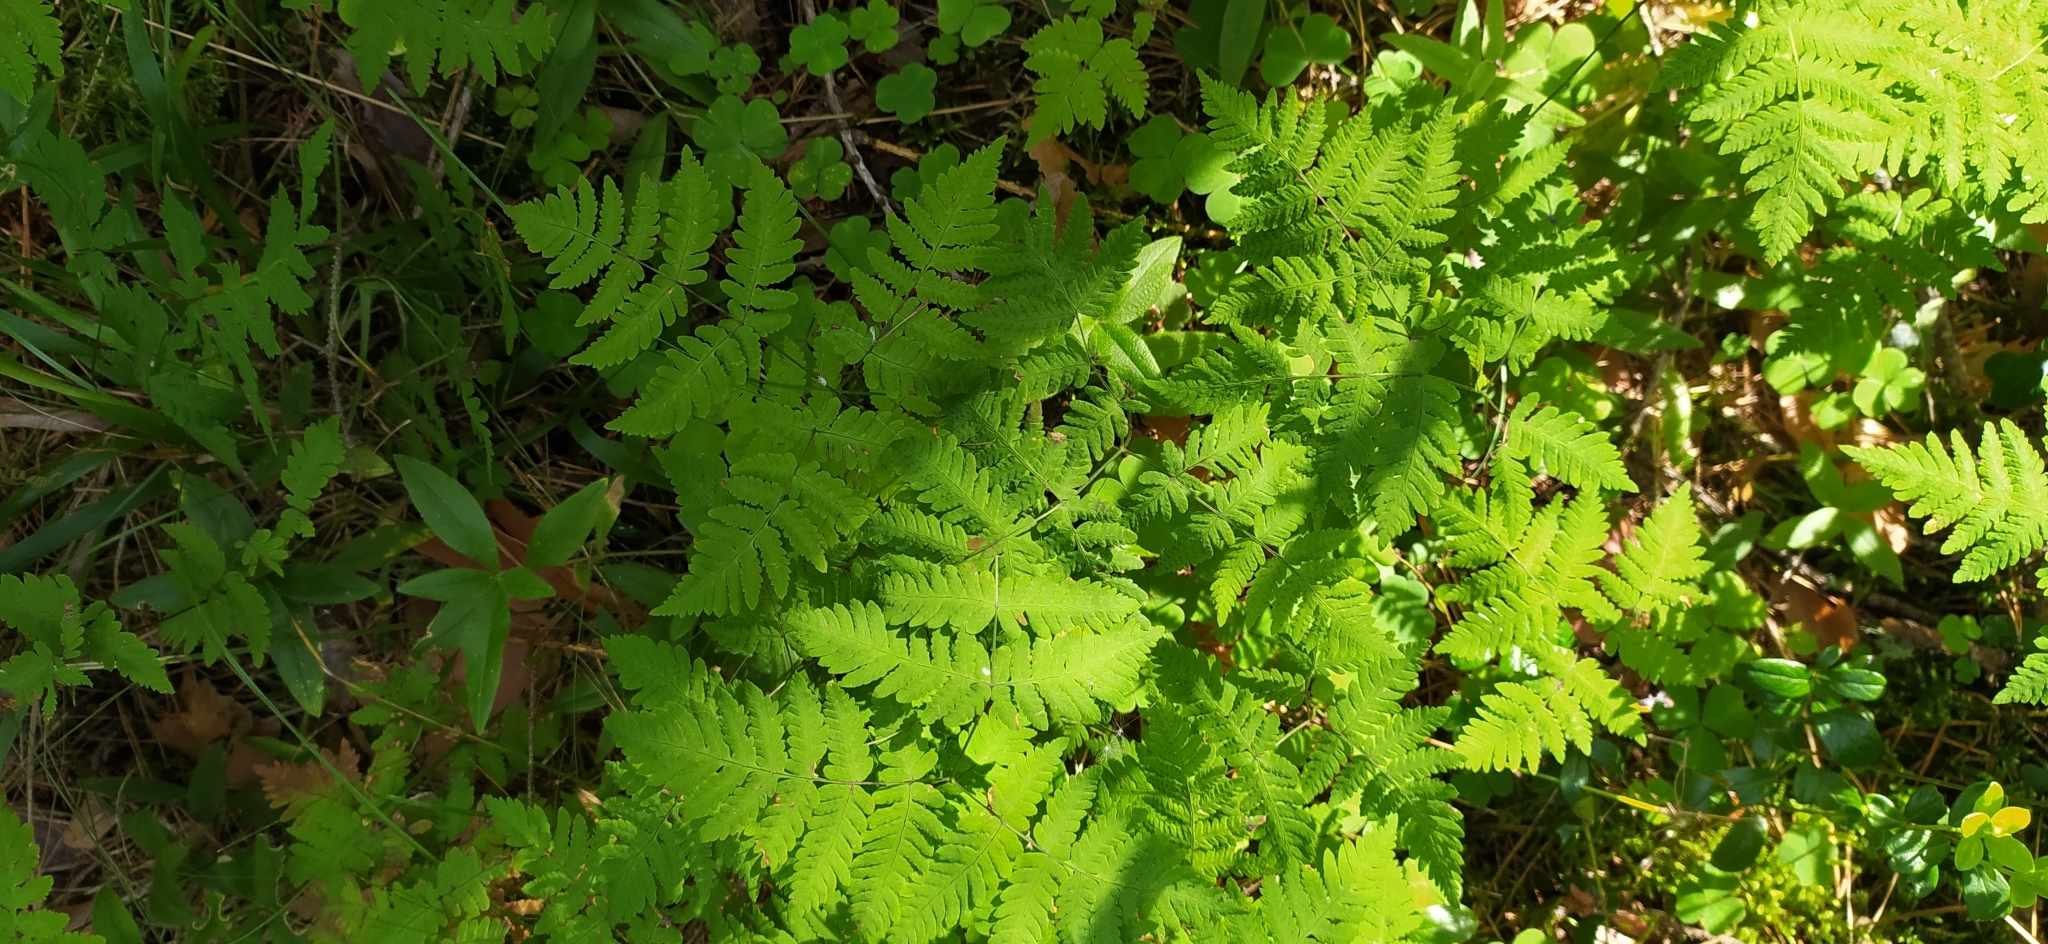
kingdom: Plantae
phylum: Tracheophyta
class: Polypodiopsida
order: Polypodiales
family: Cystopteridaceae
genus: Gymnocarpium
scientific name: Gymnocarpium dryopteris
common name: Oak fern
